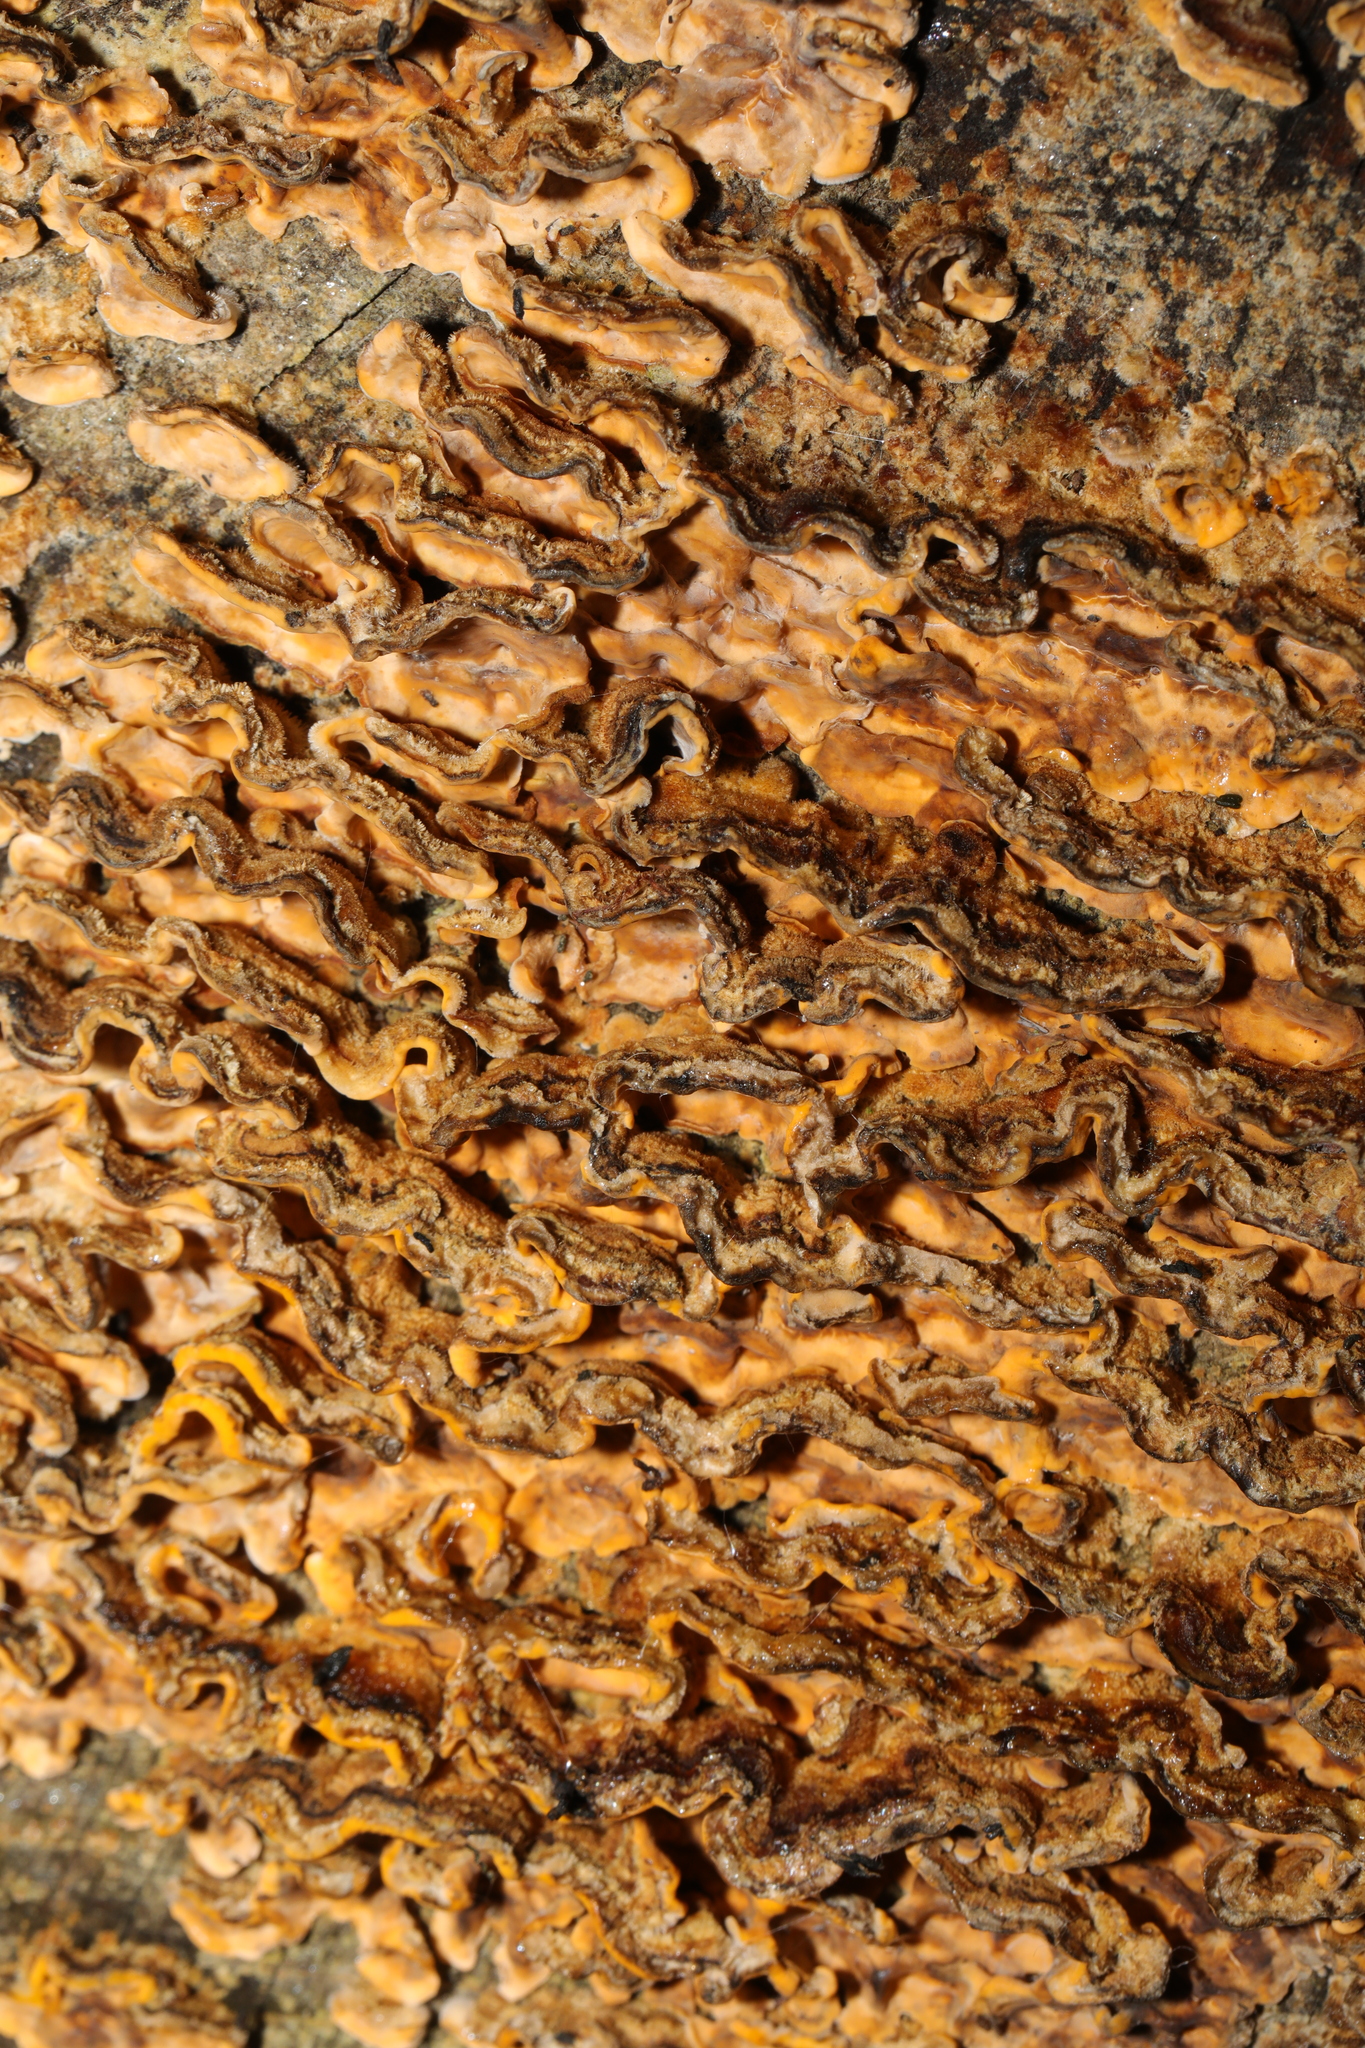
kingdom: Fungi
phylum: Basidiomycota
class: Agaricomycetes
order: Russulales
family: Stereaceae
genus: Stereum
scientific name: Stereum hirsutum
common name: Hairy curtain crust
